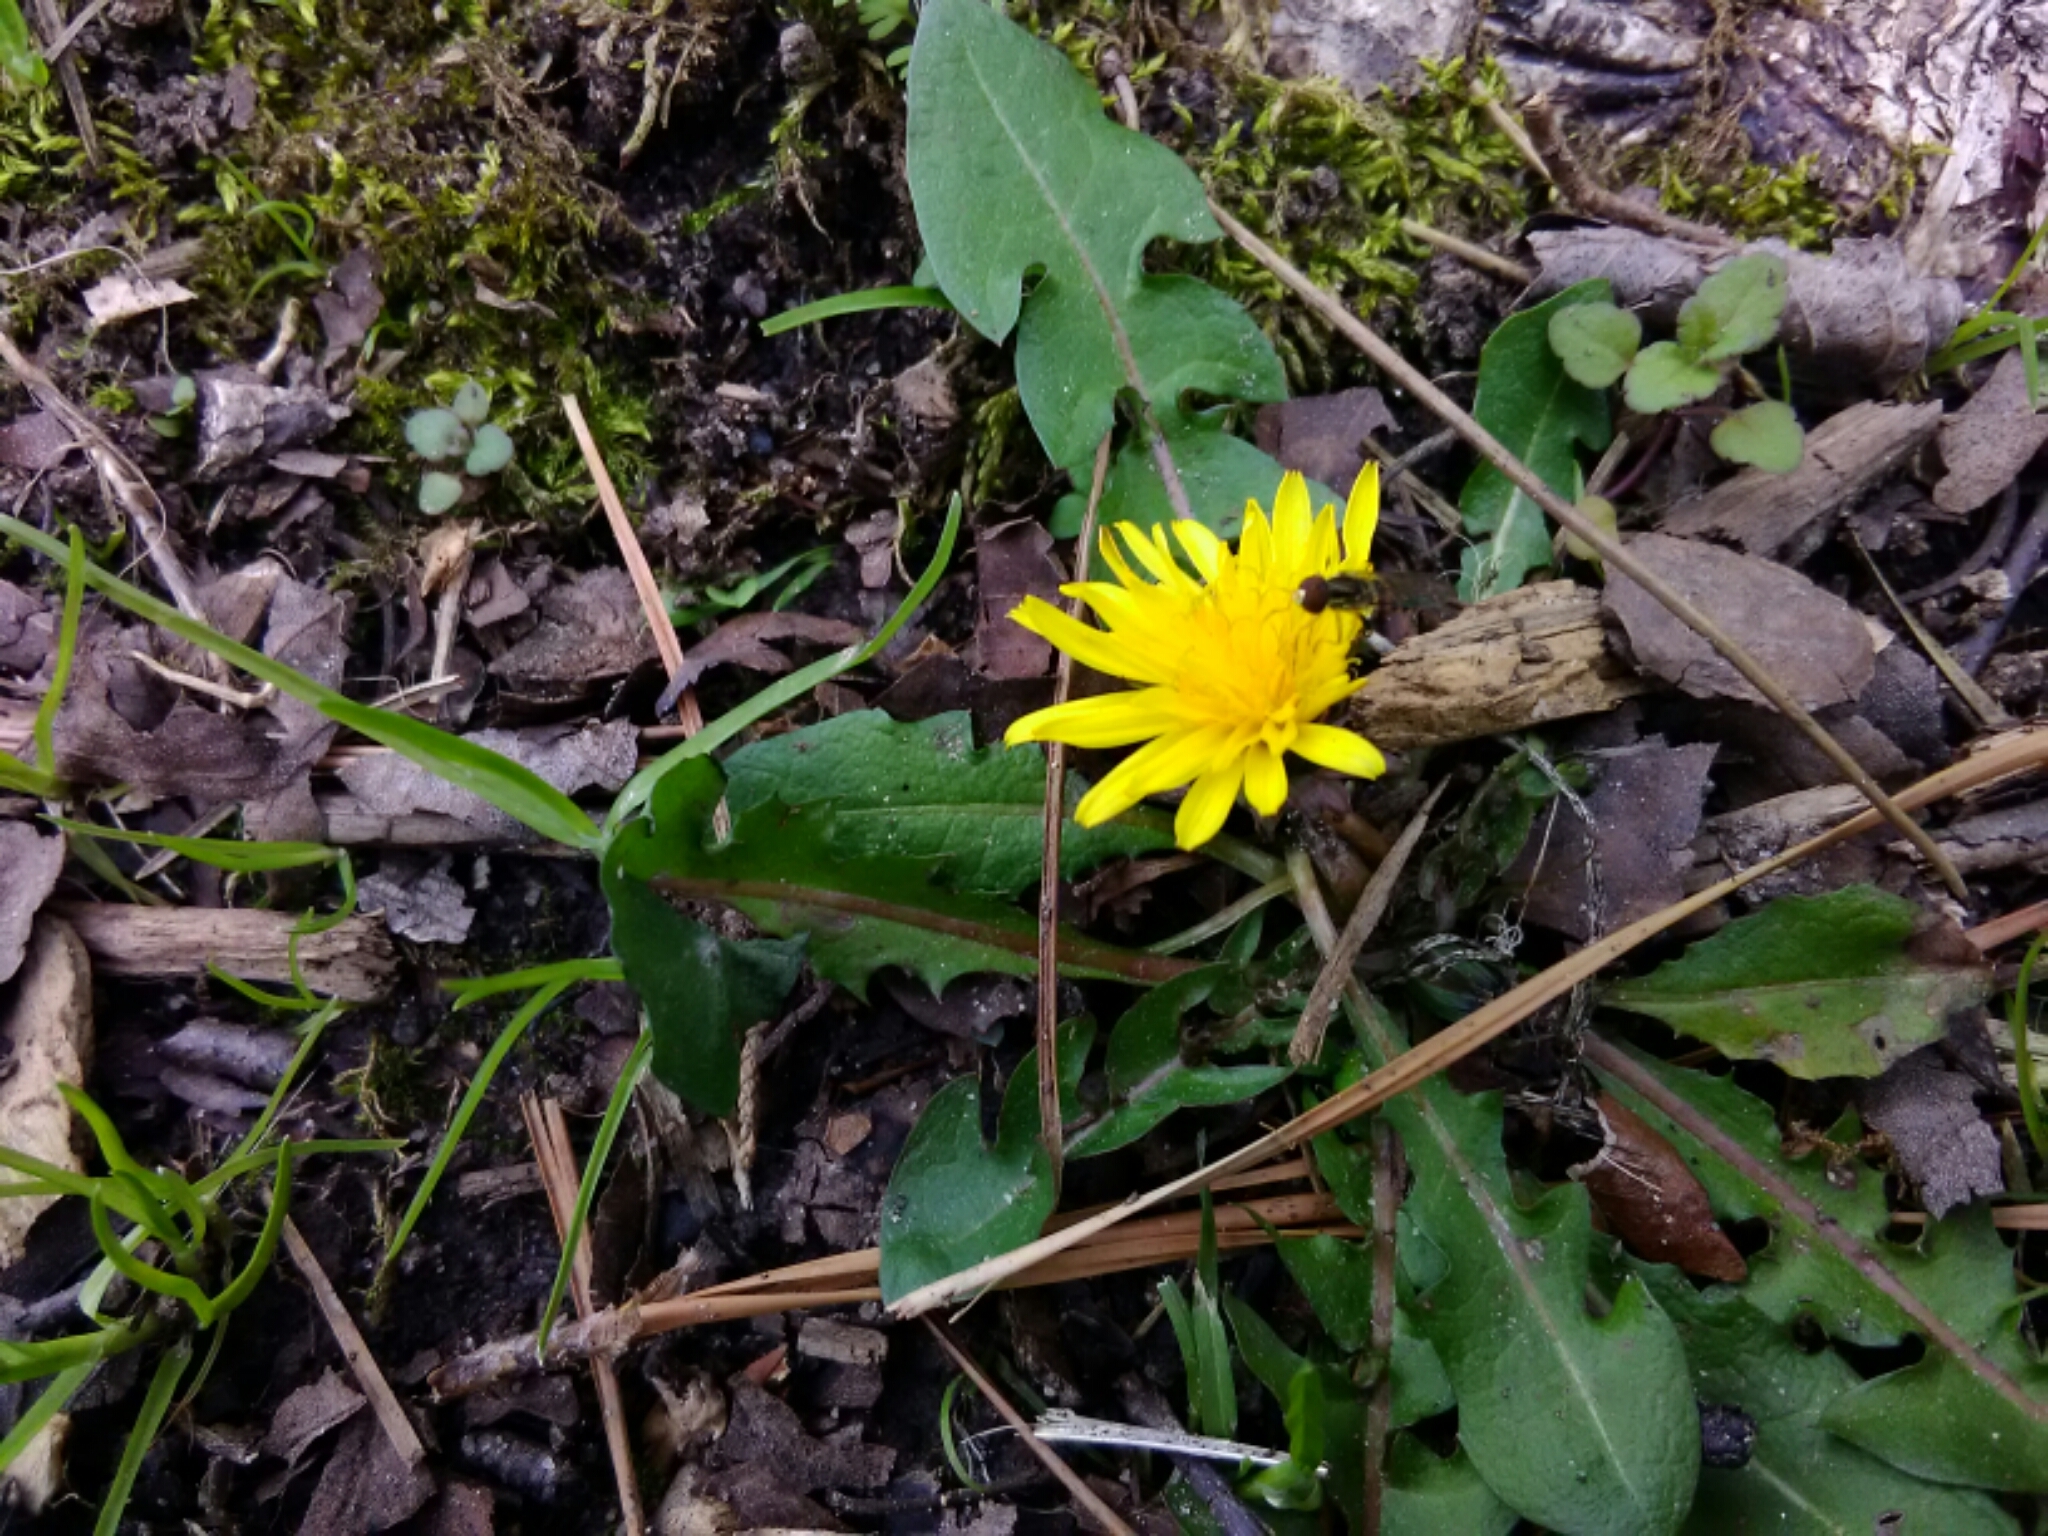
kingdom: Plantae
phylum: Tracheophyta
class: Magnoliopsida
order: Asterales
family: Asteraceae
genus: Taraxacum
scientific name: Taraxacum officinale
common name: Common dandelion
